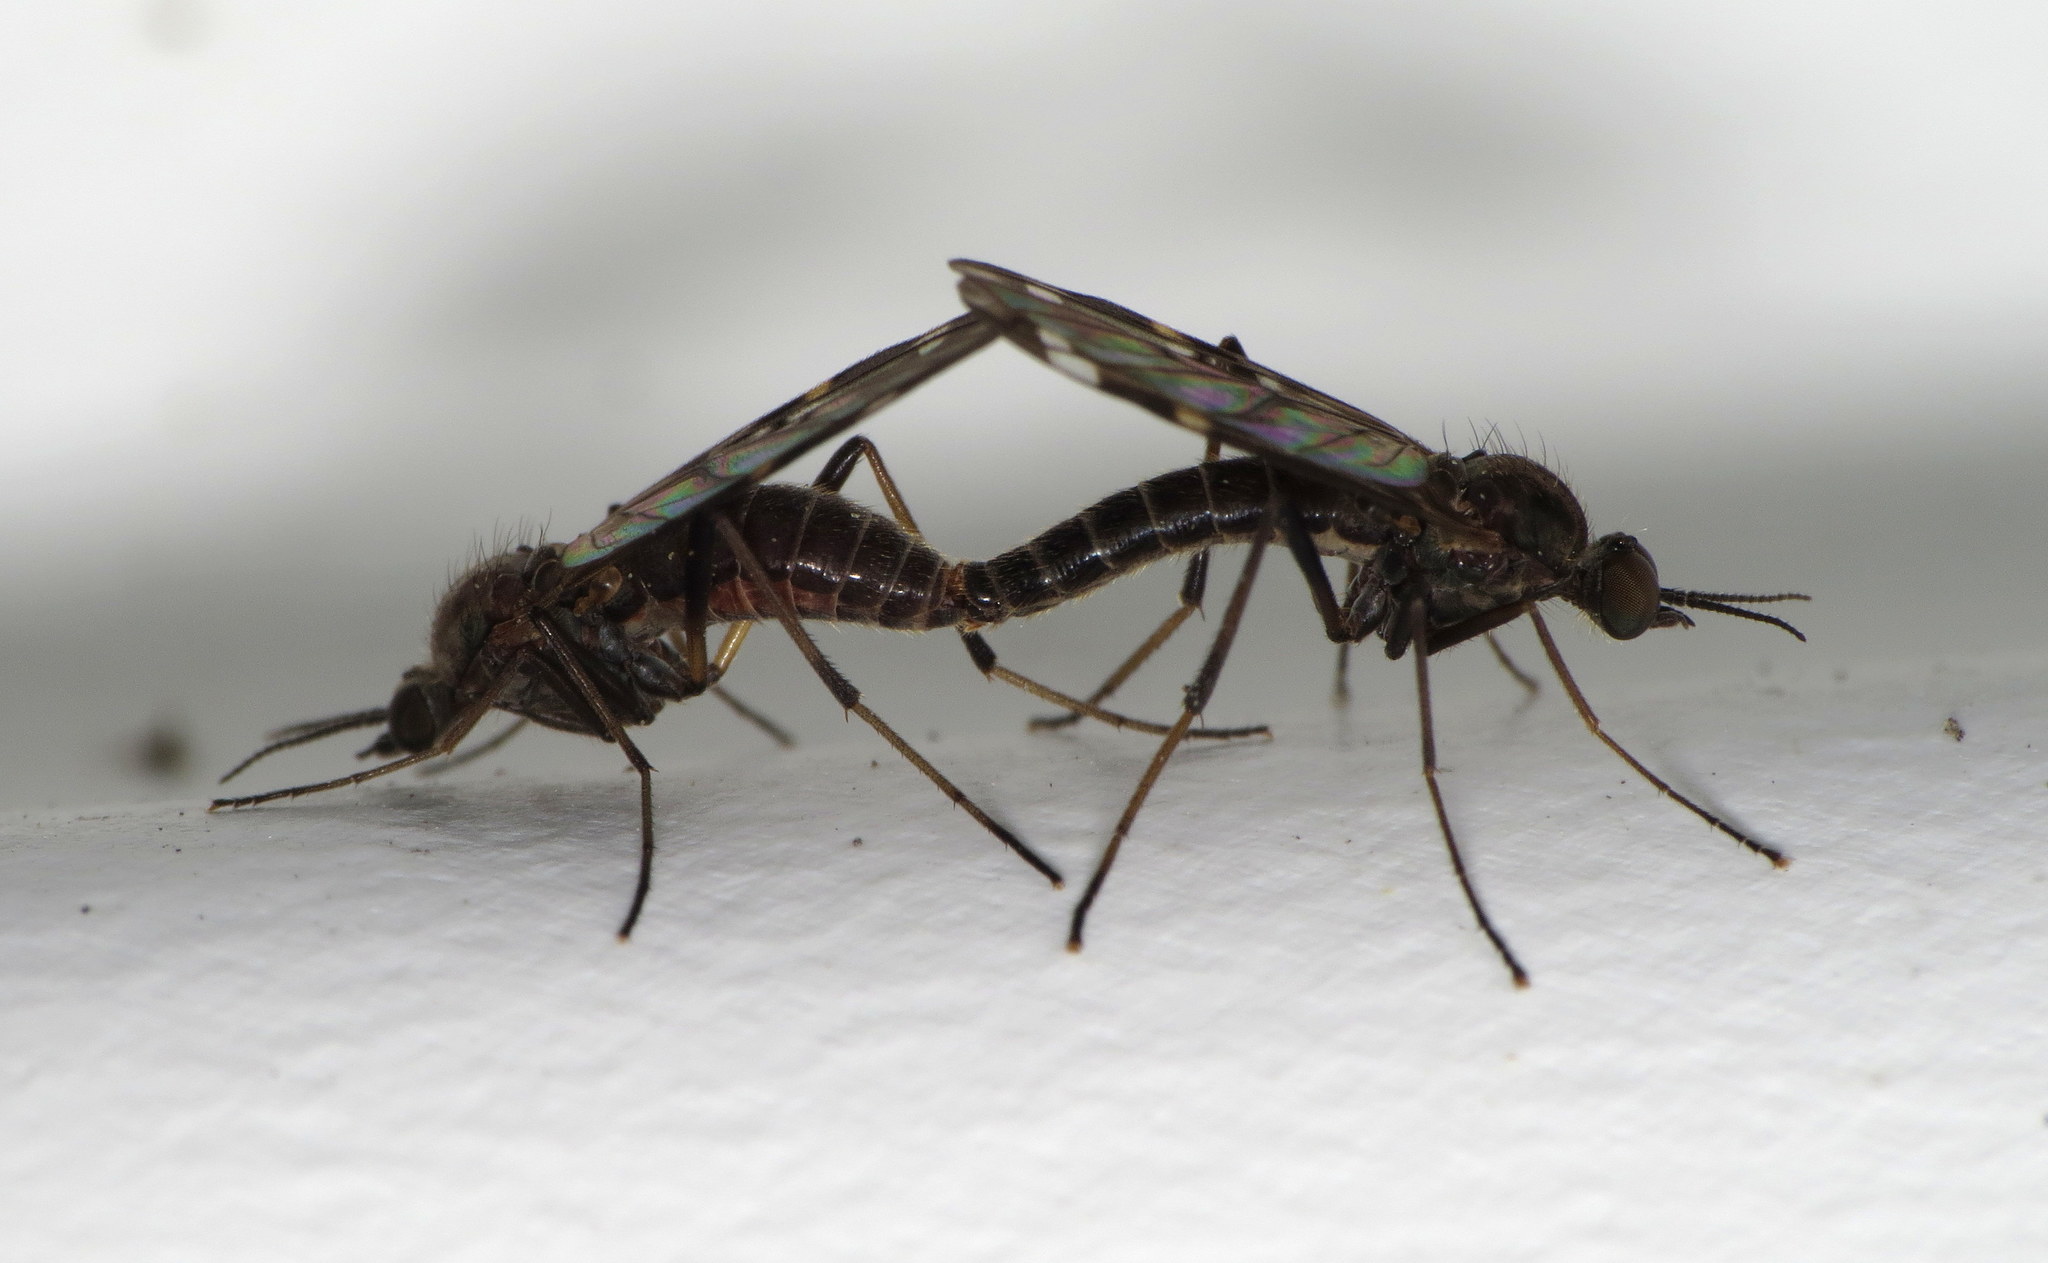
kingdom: Animalia
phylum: Arthropoda
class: Insecta
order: Diptera
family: Anisopodidae
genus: Sylvicola
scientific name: Sylvicola alternata
